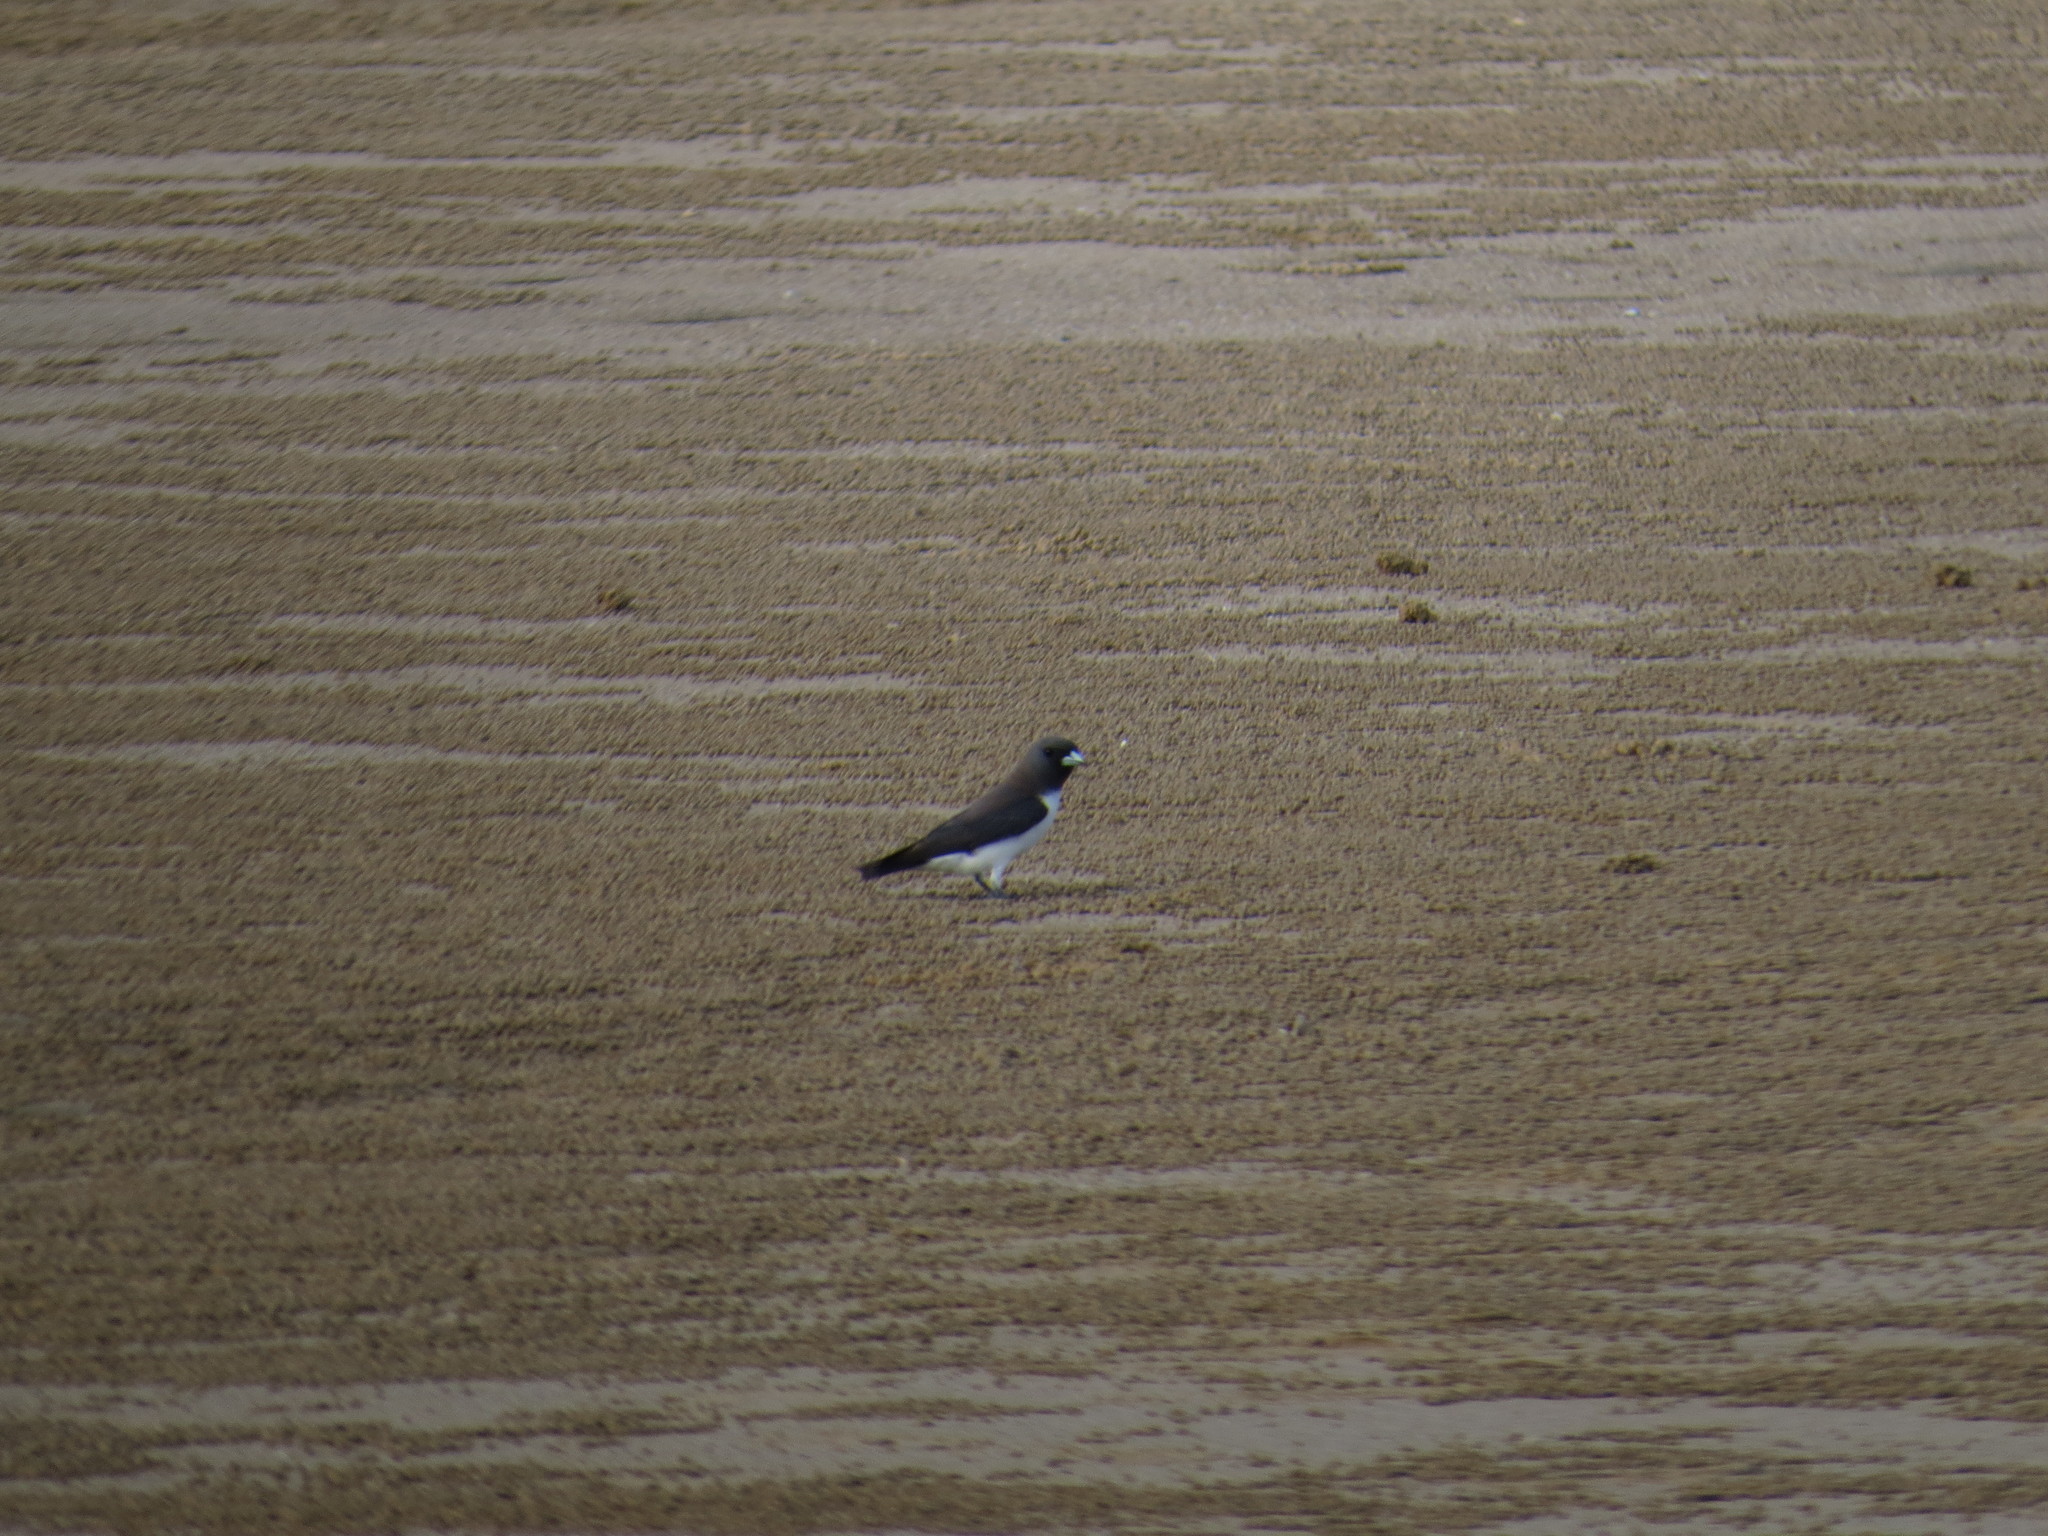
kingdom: Animalia
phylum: Chordata
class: Aves
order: Passeriformes
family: Artamidae
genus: Artamus
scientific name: Artamus leucoryn
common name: White-breasted woodswallow
